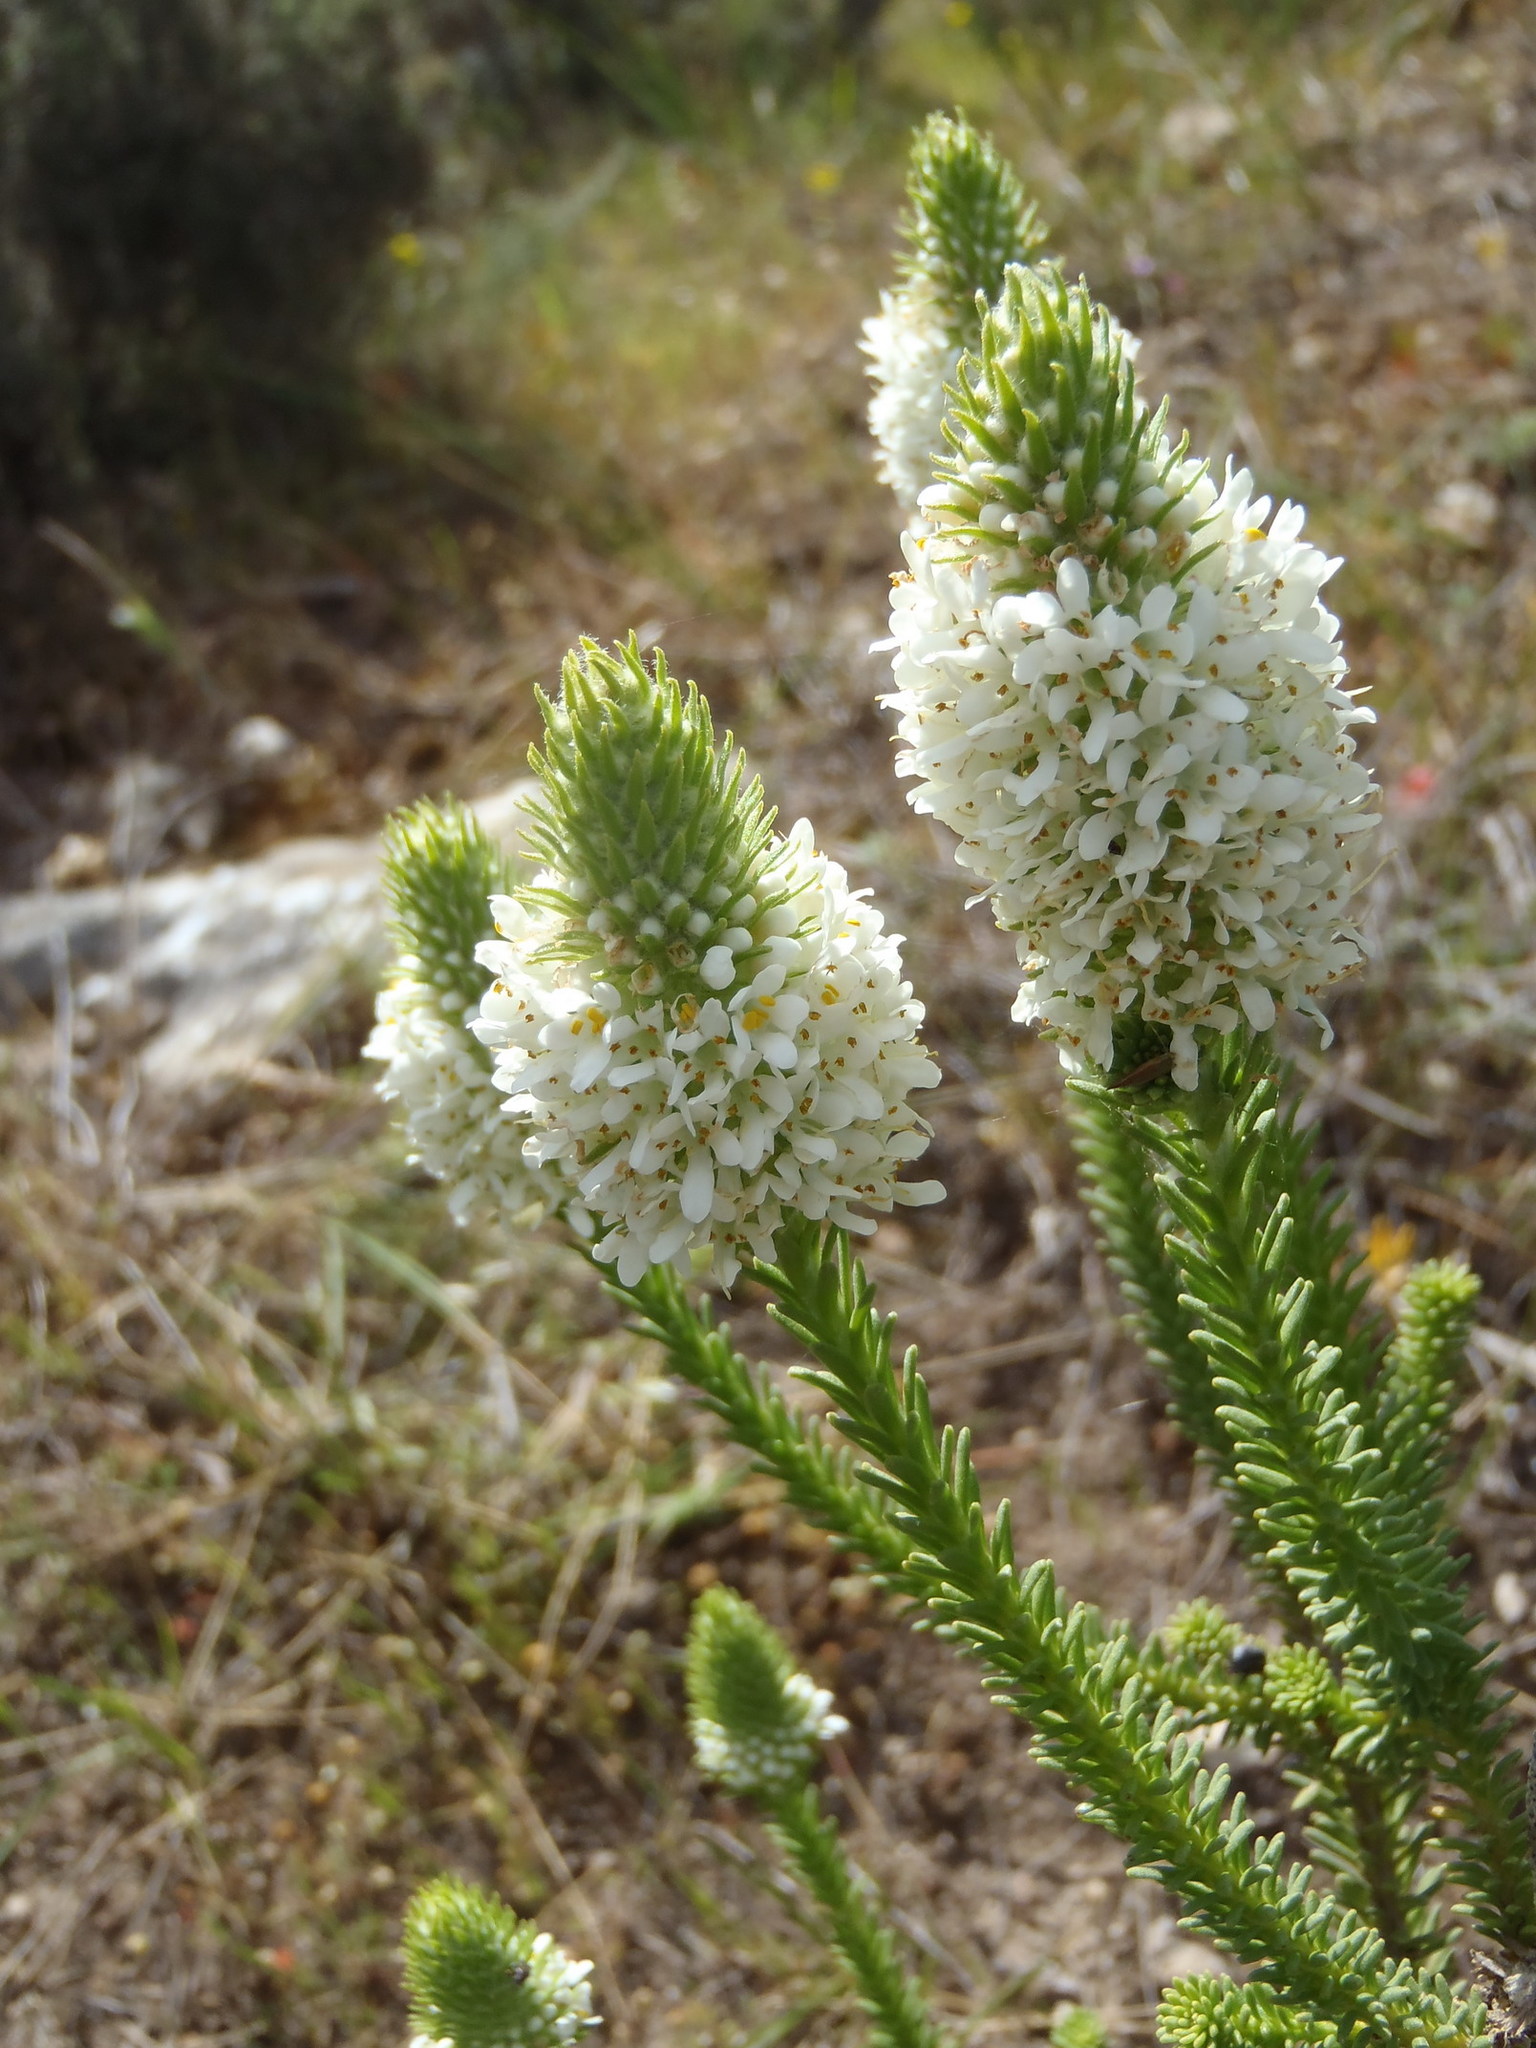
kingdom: Plantae
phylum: Tracheophyta
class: Magnoliopsida
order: Lamiales
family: Scrophulariaceae
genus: Selago
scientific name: Selago aspera
